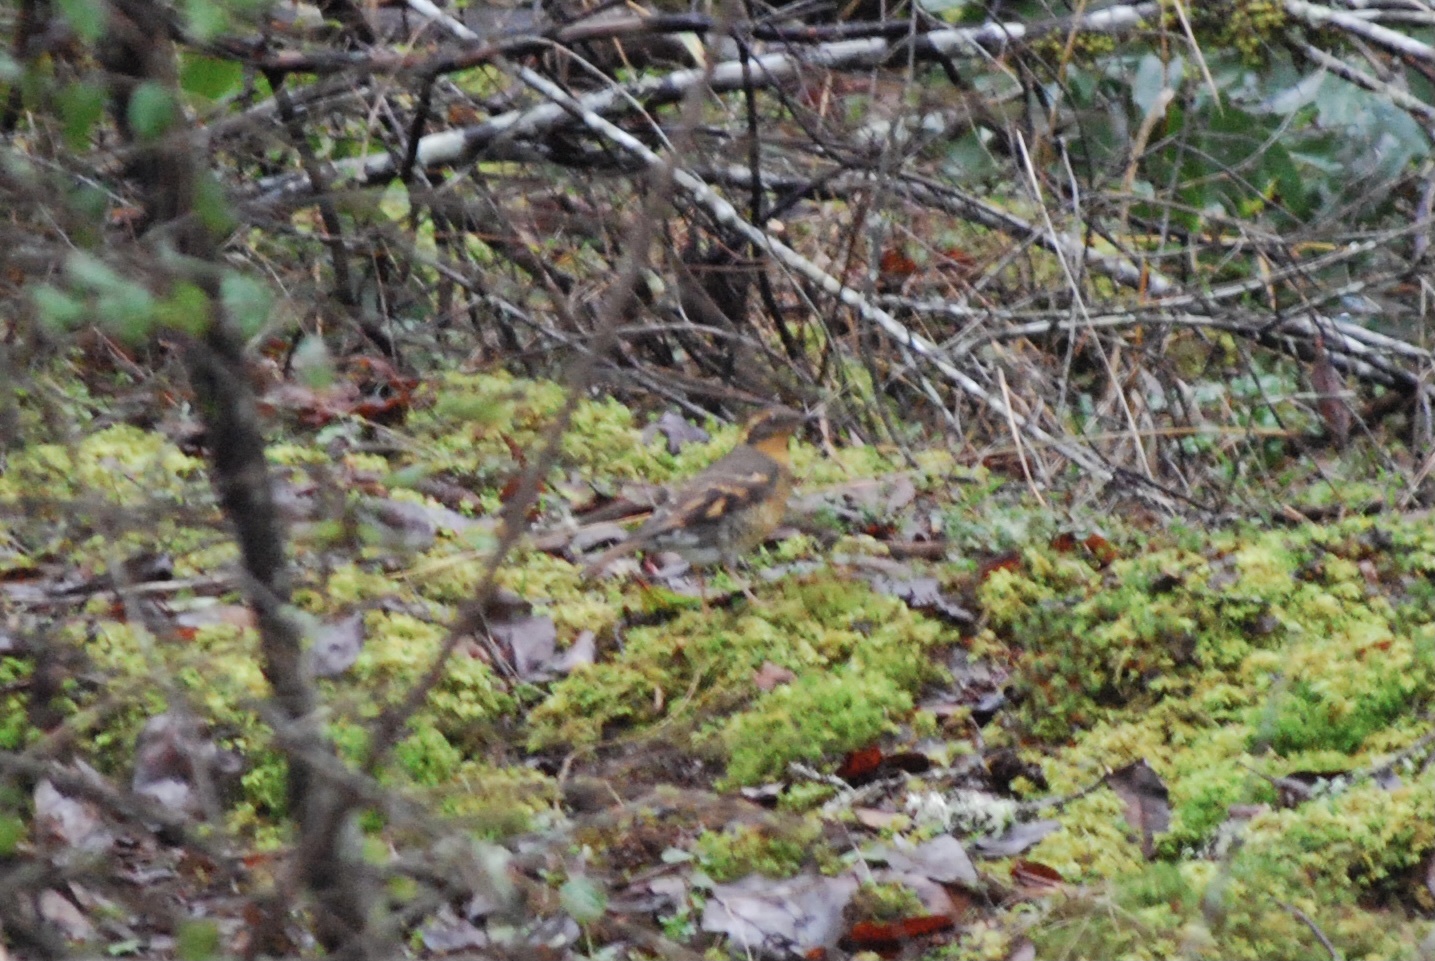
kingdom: Animalia
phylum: Chordata
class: Aves
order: Passeriformes
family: Turdidae
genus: Ixoreus
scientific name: Ixoreus naevius
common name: Varied thrush
